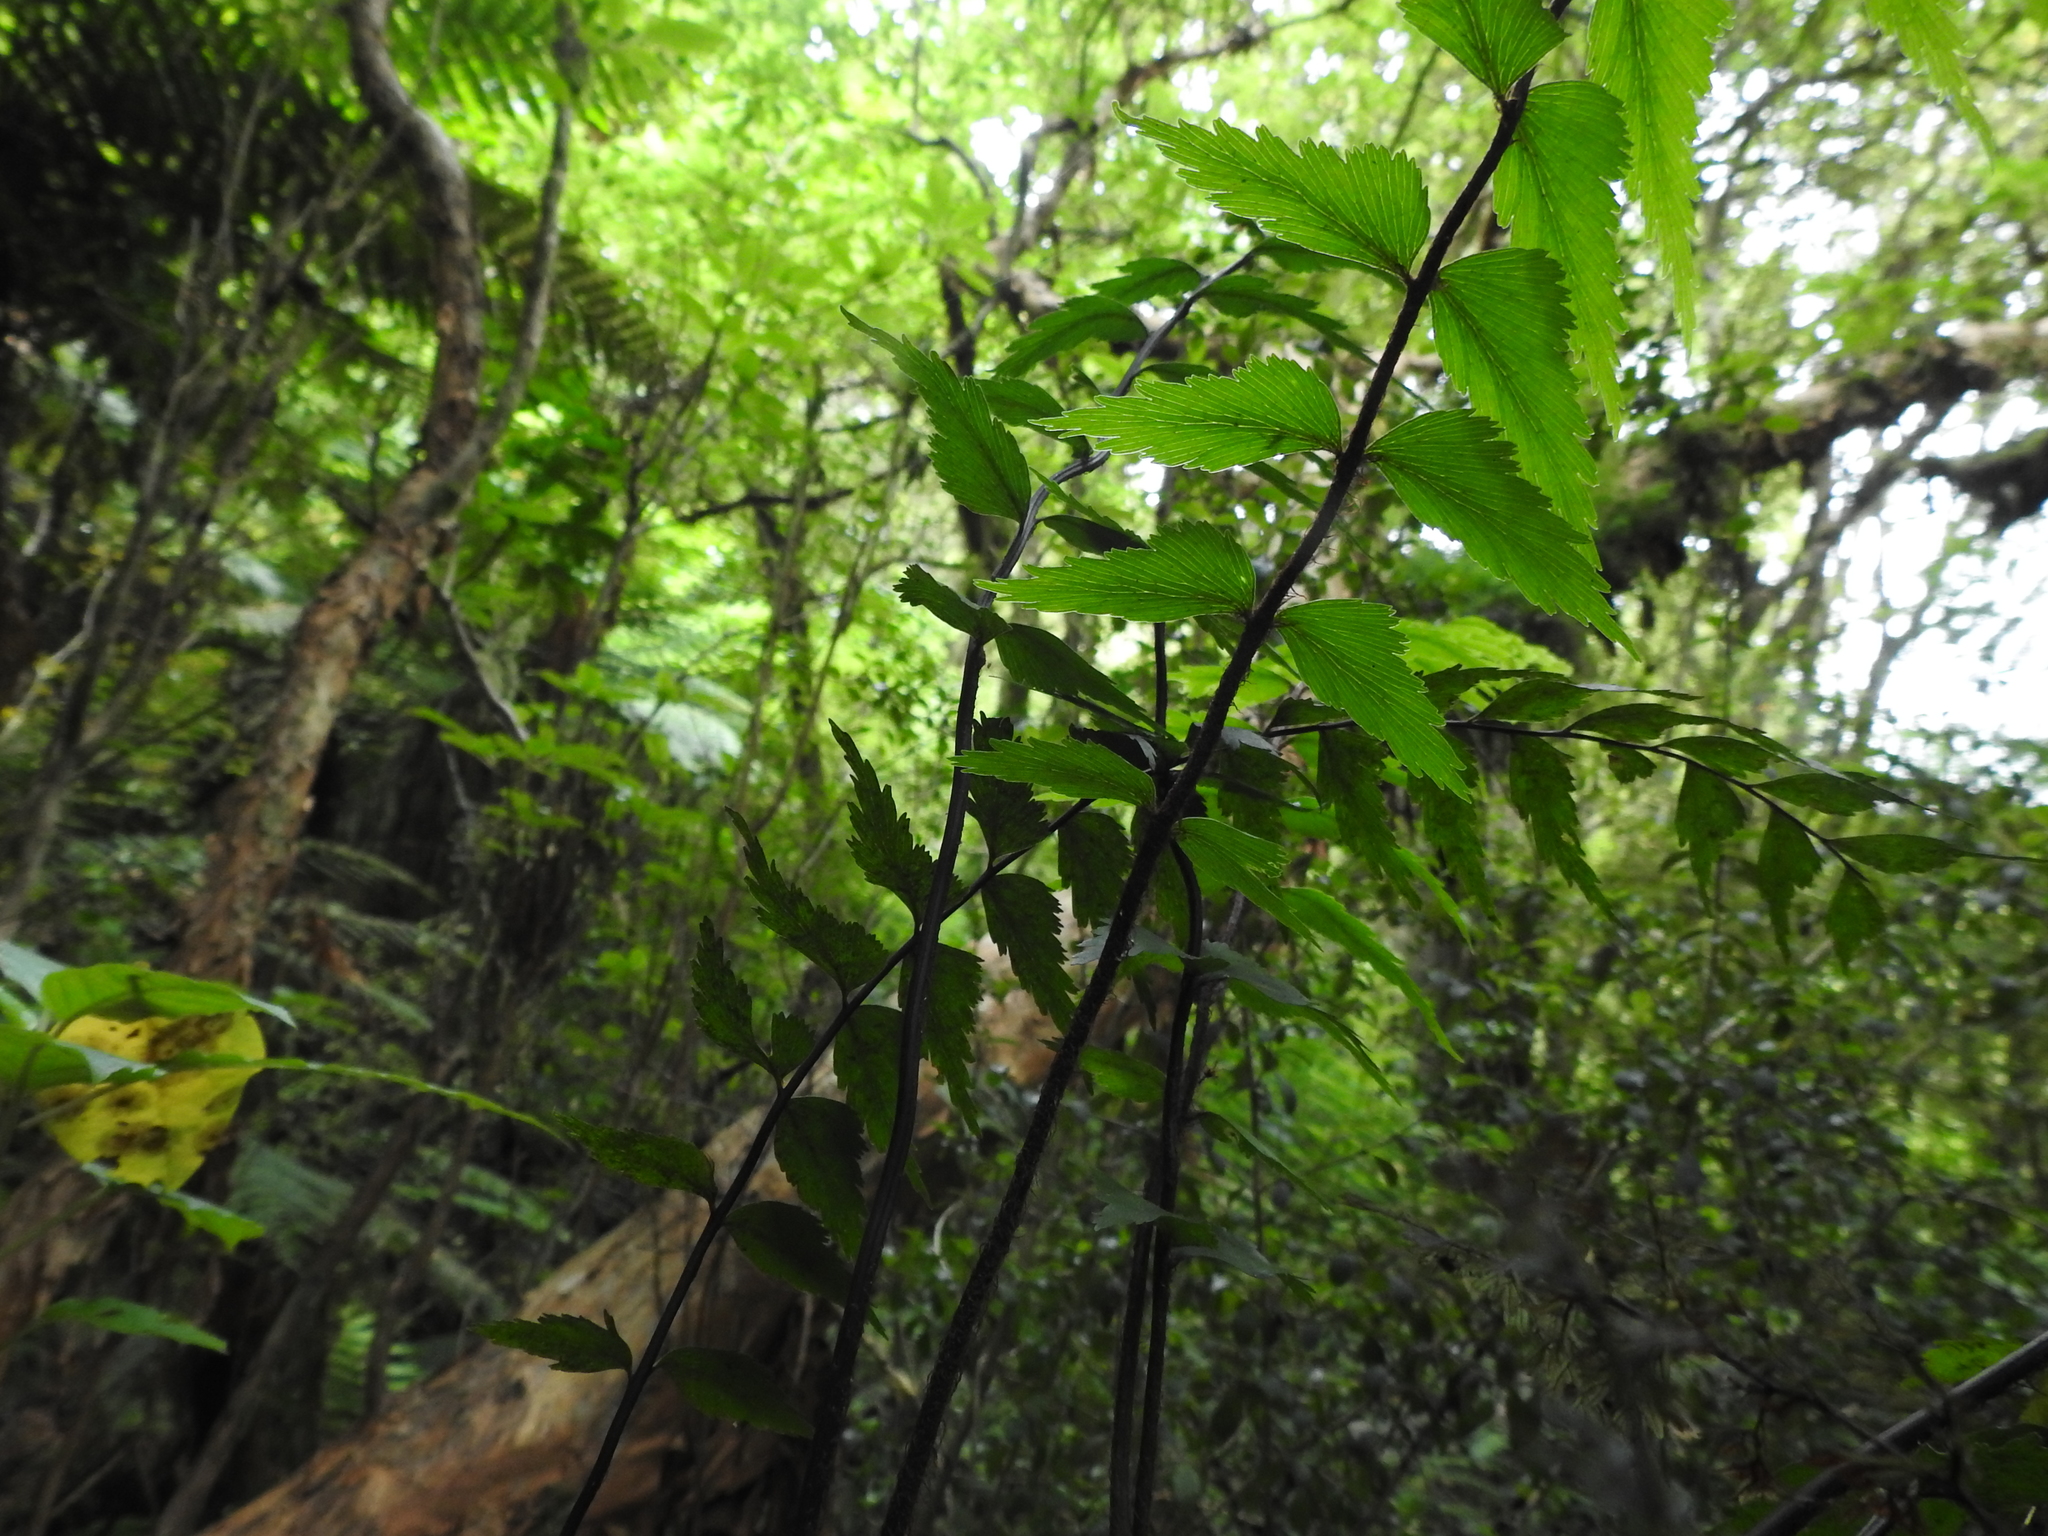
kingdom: Plantae
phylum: Tracheophyta
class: Polypodiopsida
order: Polypodiales
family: Aspleniaceae
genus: Asplenium
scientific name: Asplenium polyodon
